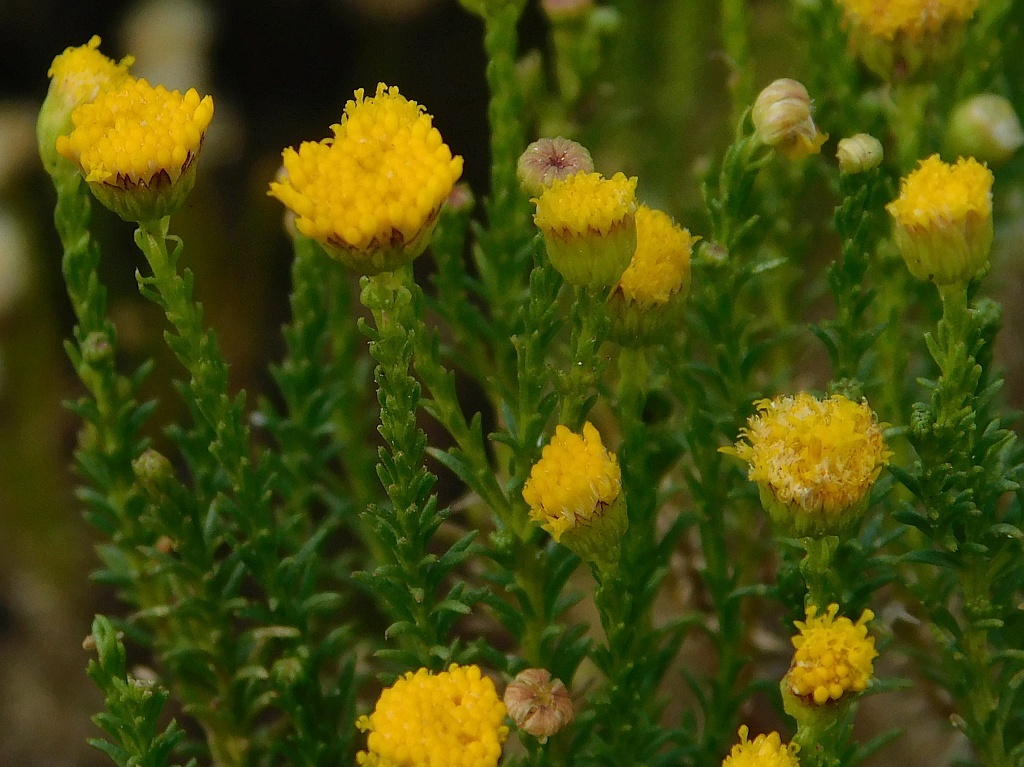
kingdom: Plantae
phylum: Tracheophyta
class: Magnoliopsida
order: Asterales
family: Asteraceae
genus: Chrysocoma
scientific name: Chrysocoma ciliata
